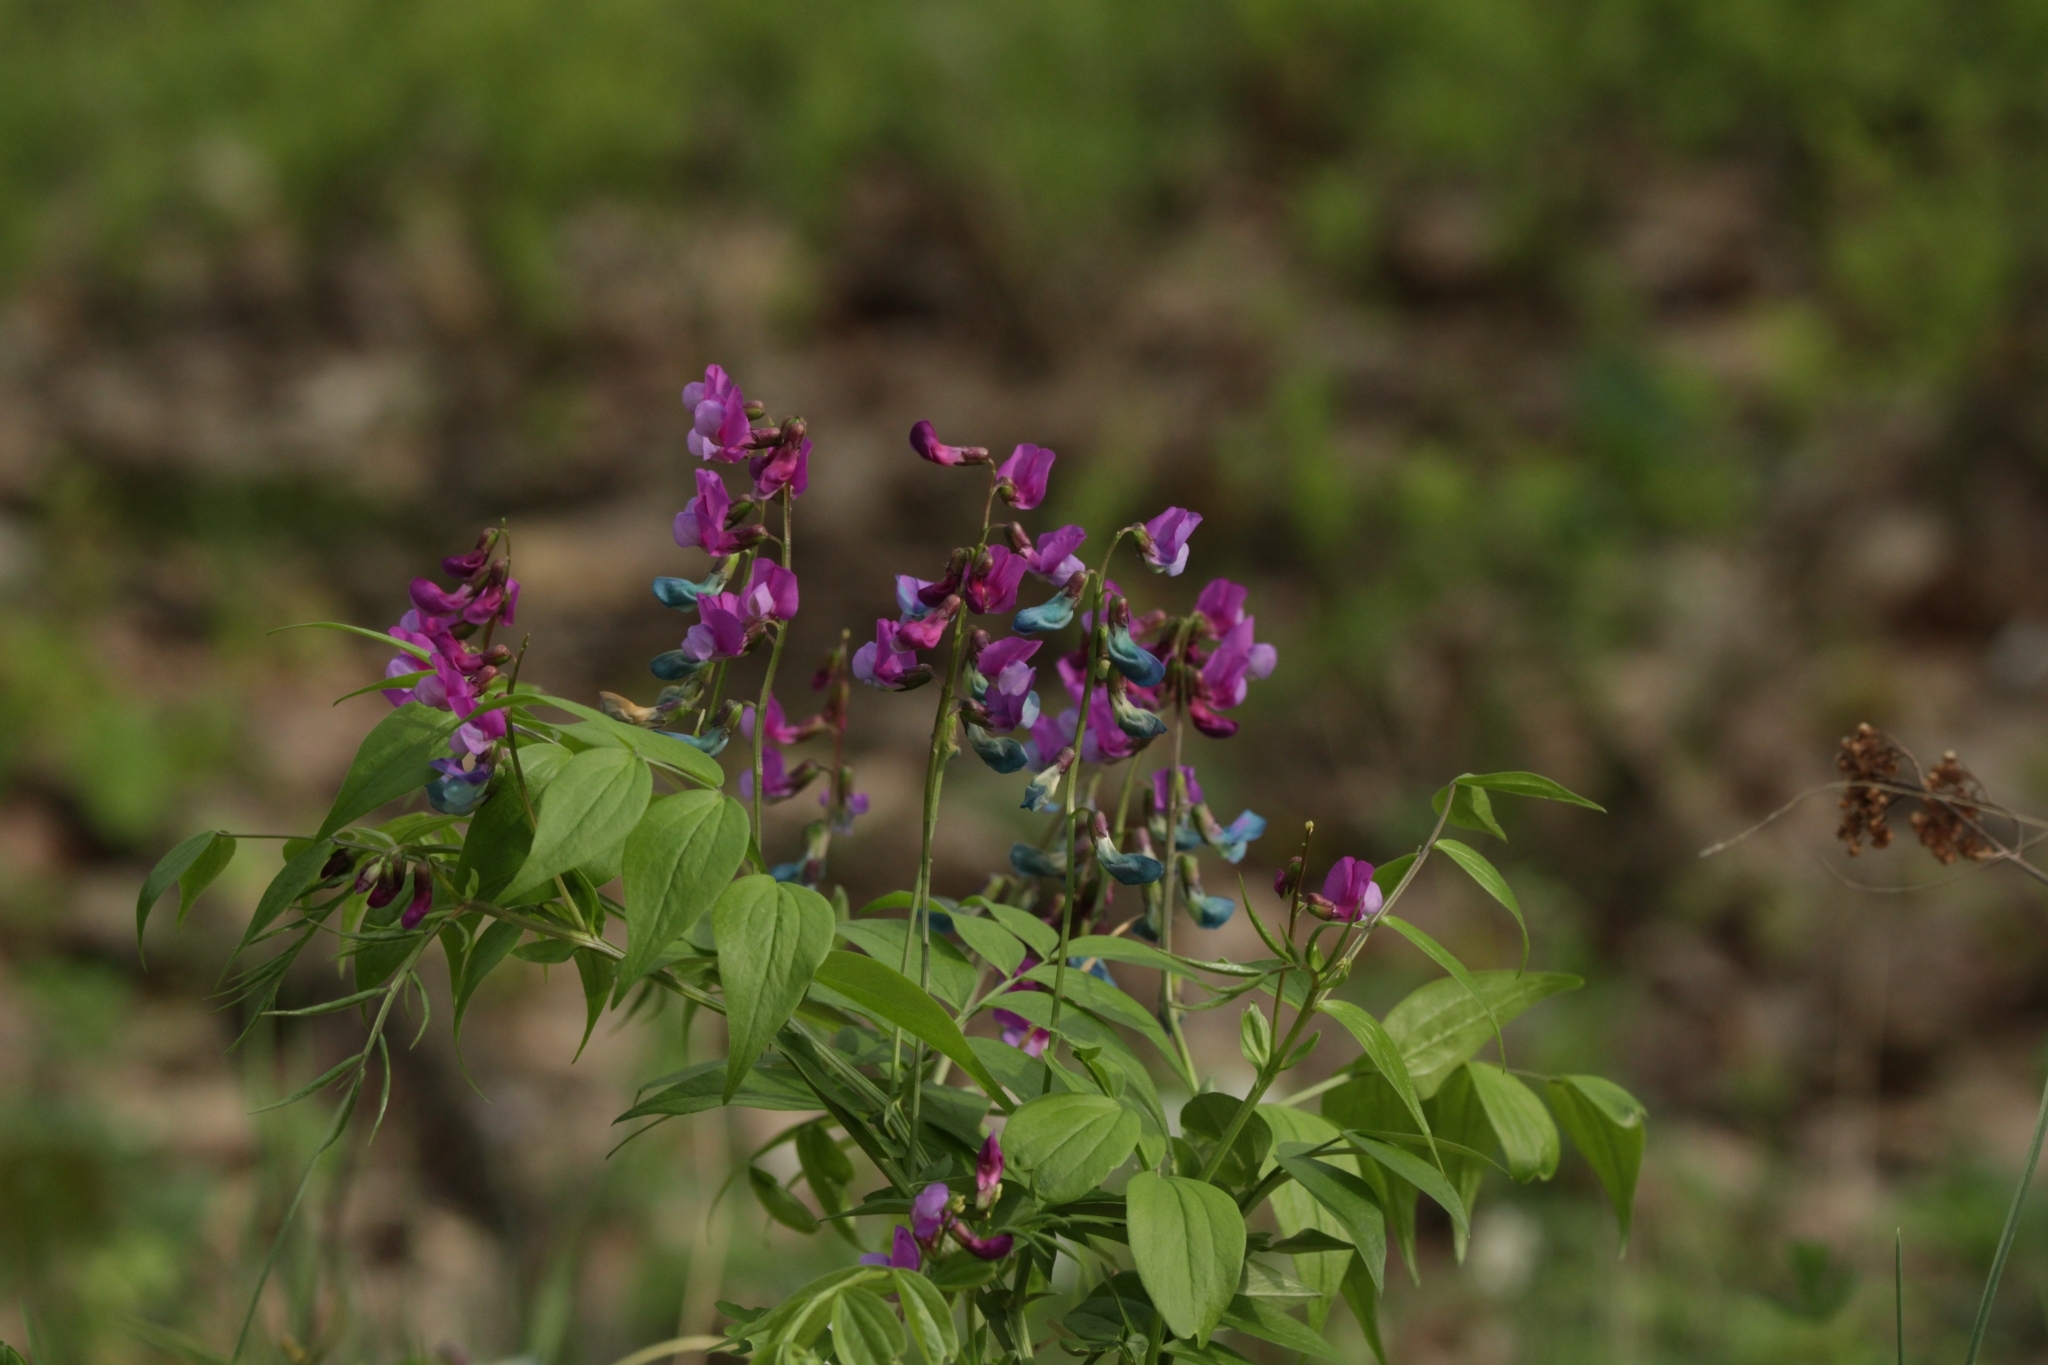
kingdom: Plantae
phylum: Tracheophyta
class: Magnoliopsida
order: Fabales
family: Fabaceae
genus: Lathyrus
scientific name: Lathyrus vernus
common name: Spring pea
